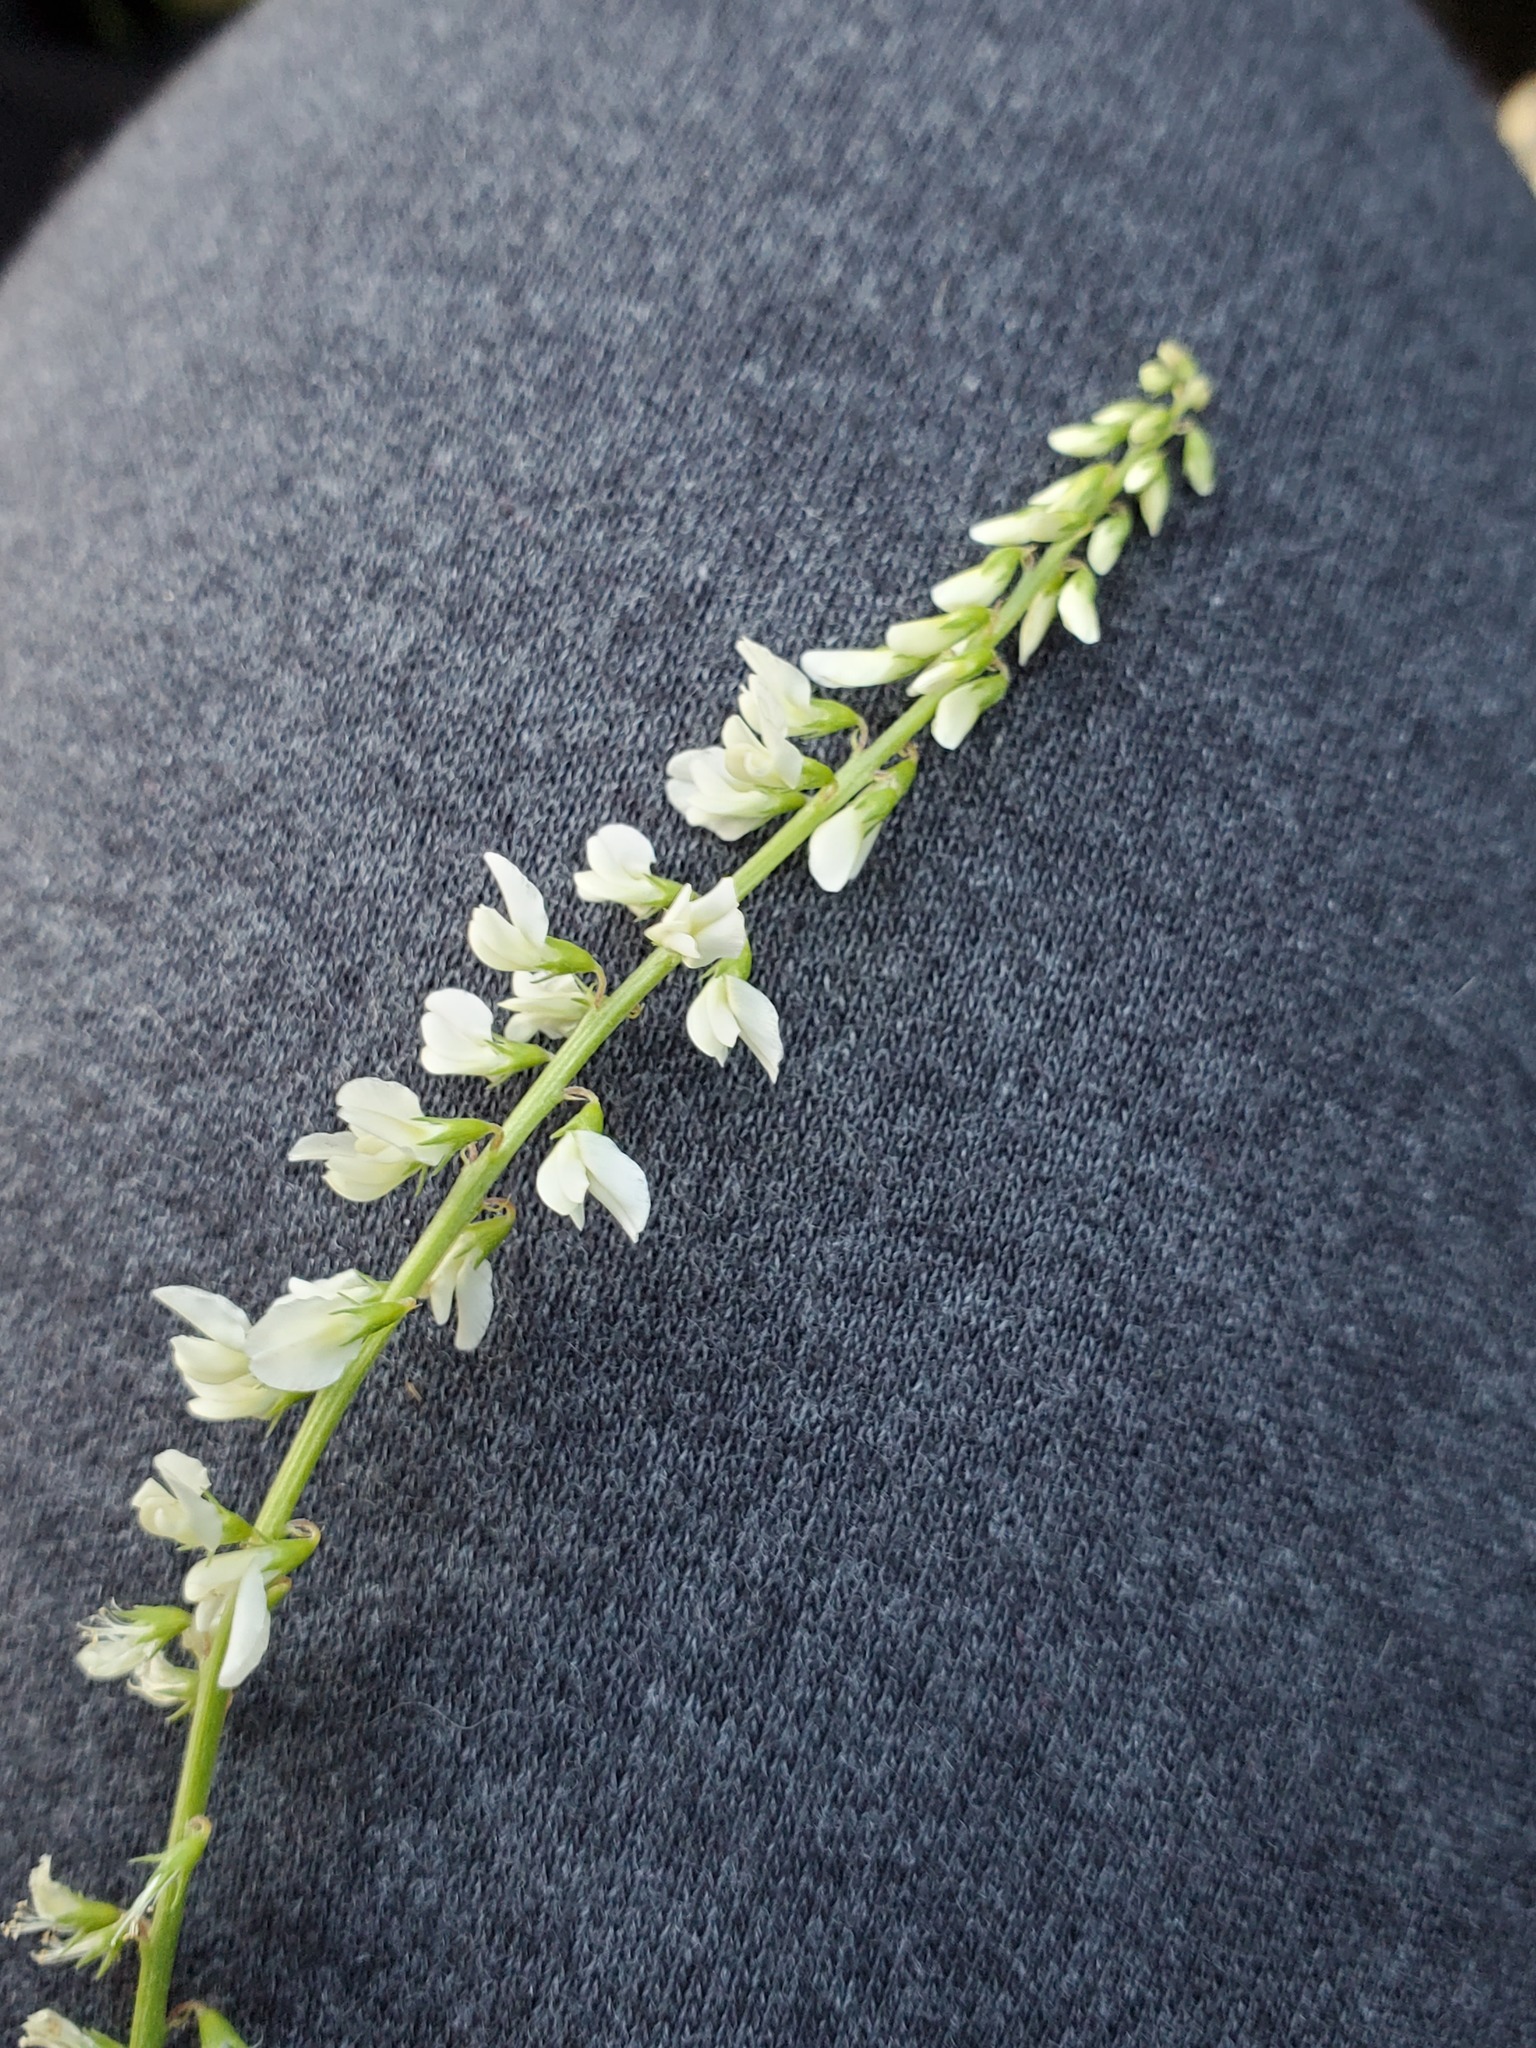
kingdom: Plantae
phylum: Tracheophyta
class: Magnoliopsida
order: Fabales
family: Fabaceae
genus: Melilotus
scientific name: Melilotus albus
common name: White melilot
